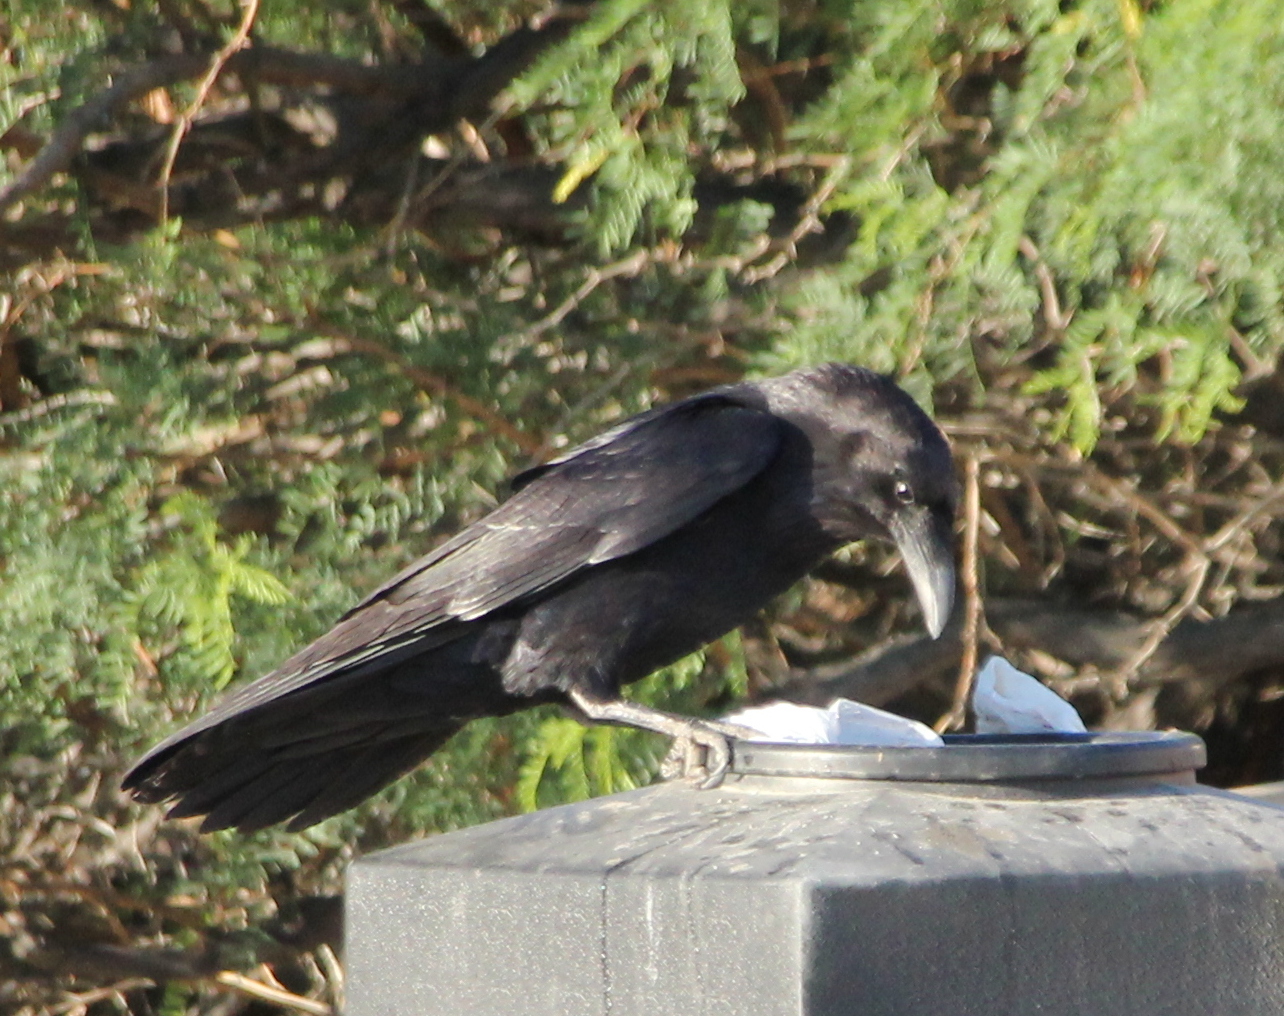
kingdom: Animalia
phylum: Chordata
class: Aves
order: Passeriformes
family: Corvidae
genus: Corvus
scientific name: Corvus corax
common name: Common raven
